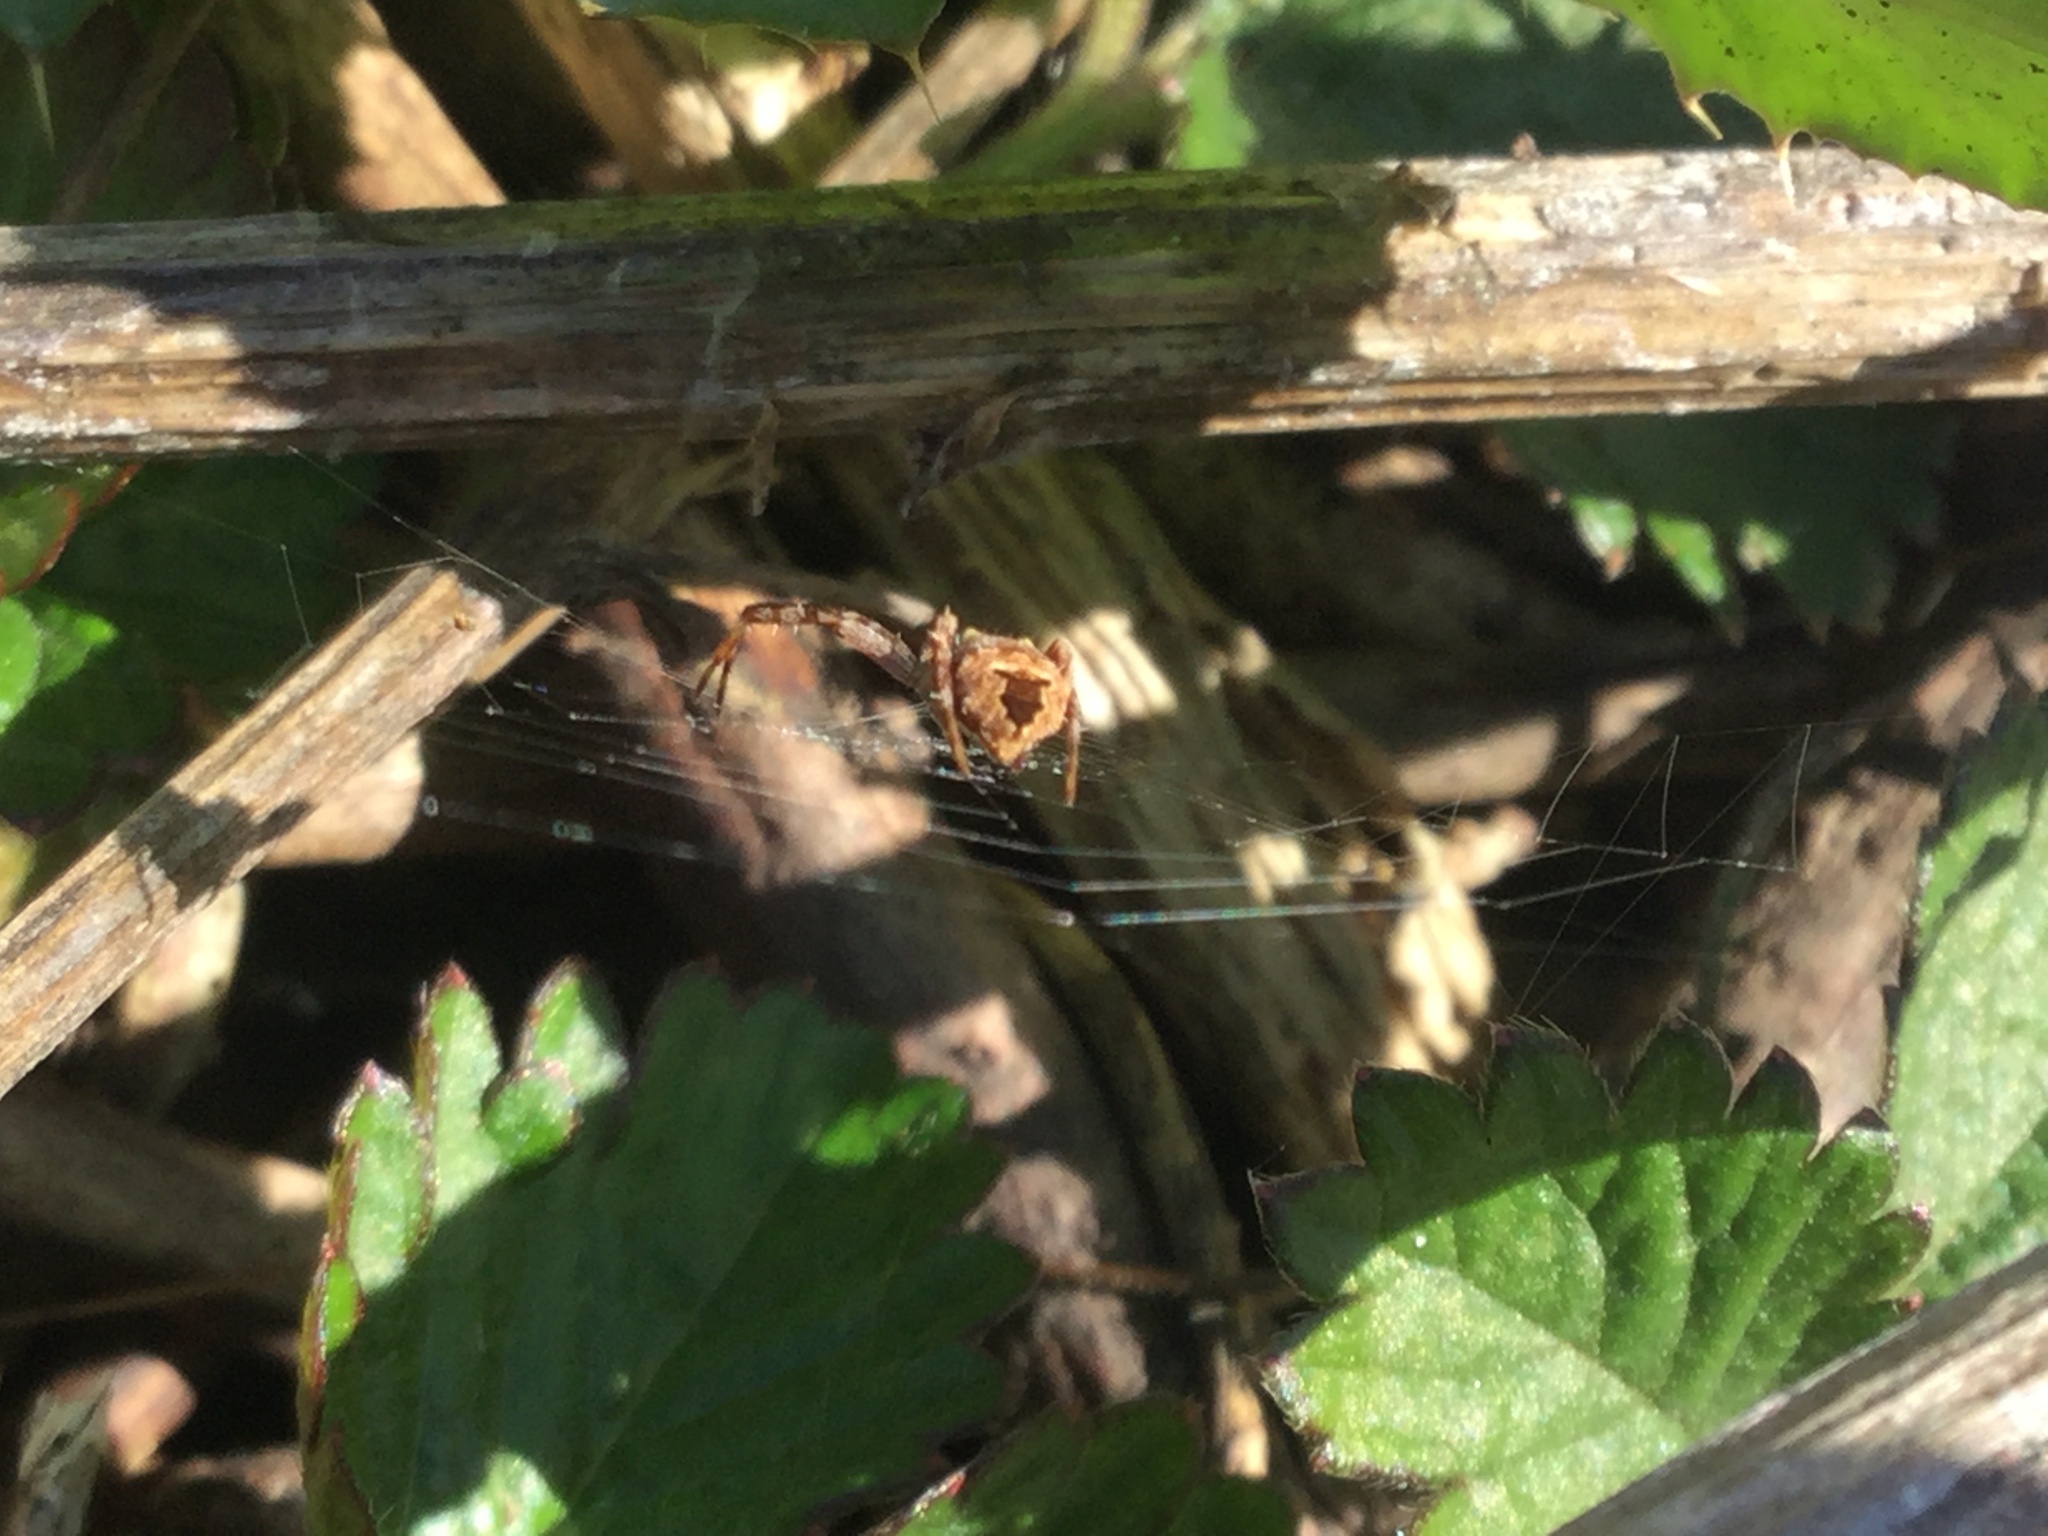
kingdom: Animalia
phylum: Arthropoda
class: Arachnida
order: Araneae
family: Araneidae
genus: Gea
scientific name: Gea heptagon
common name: Orb weavers
